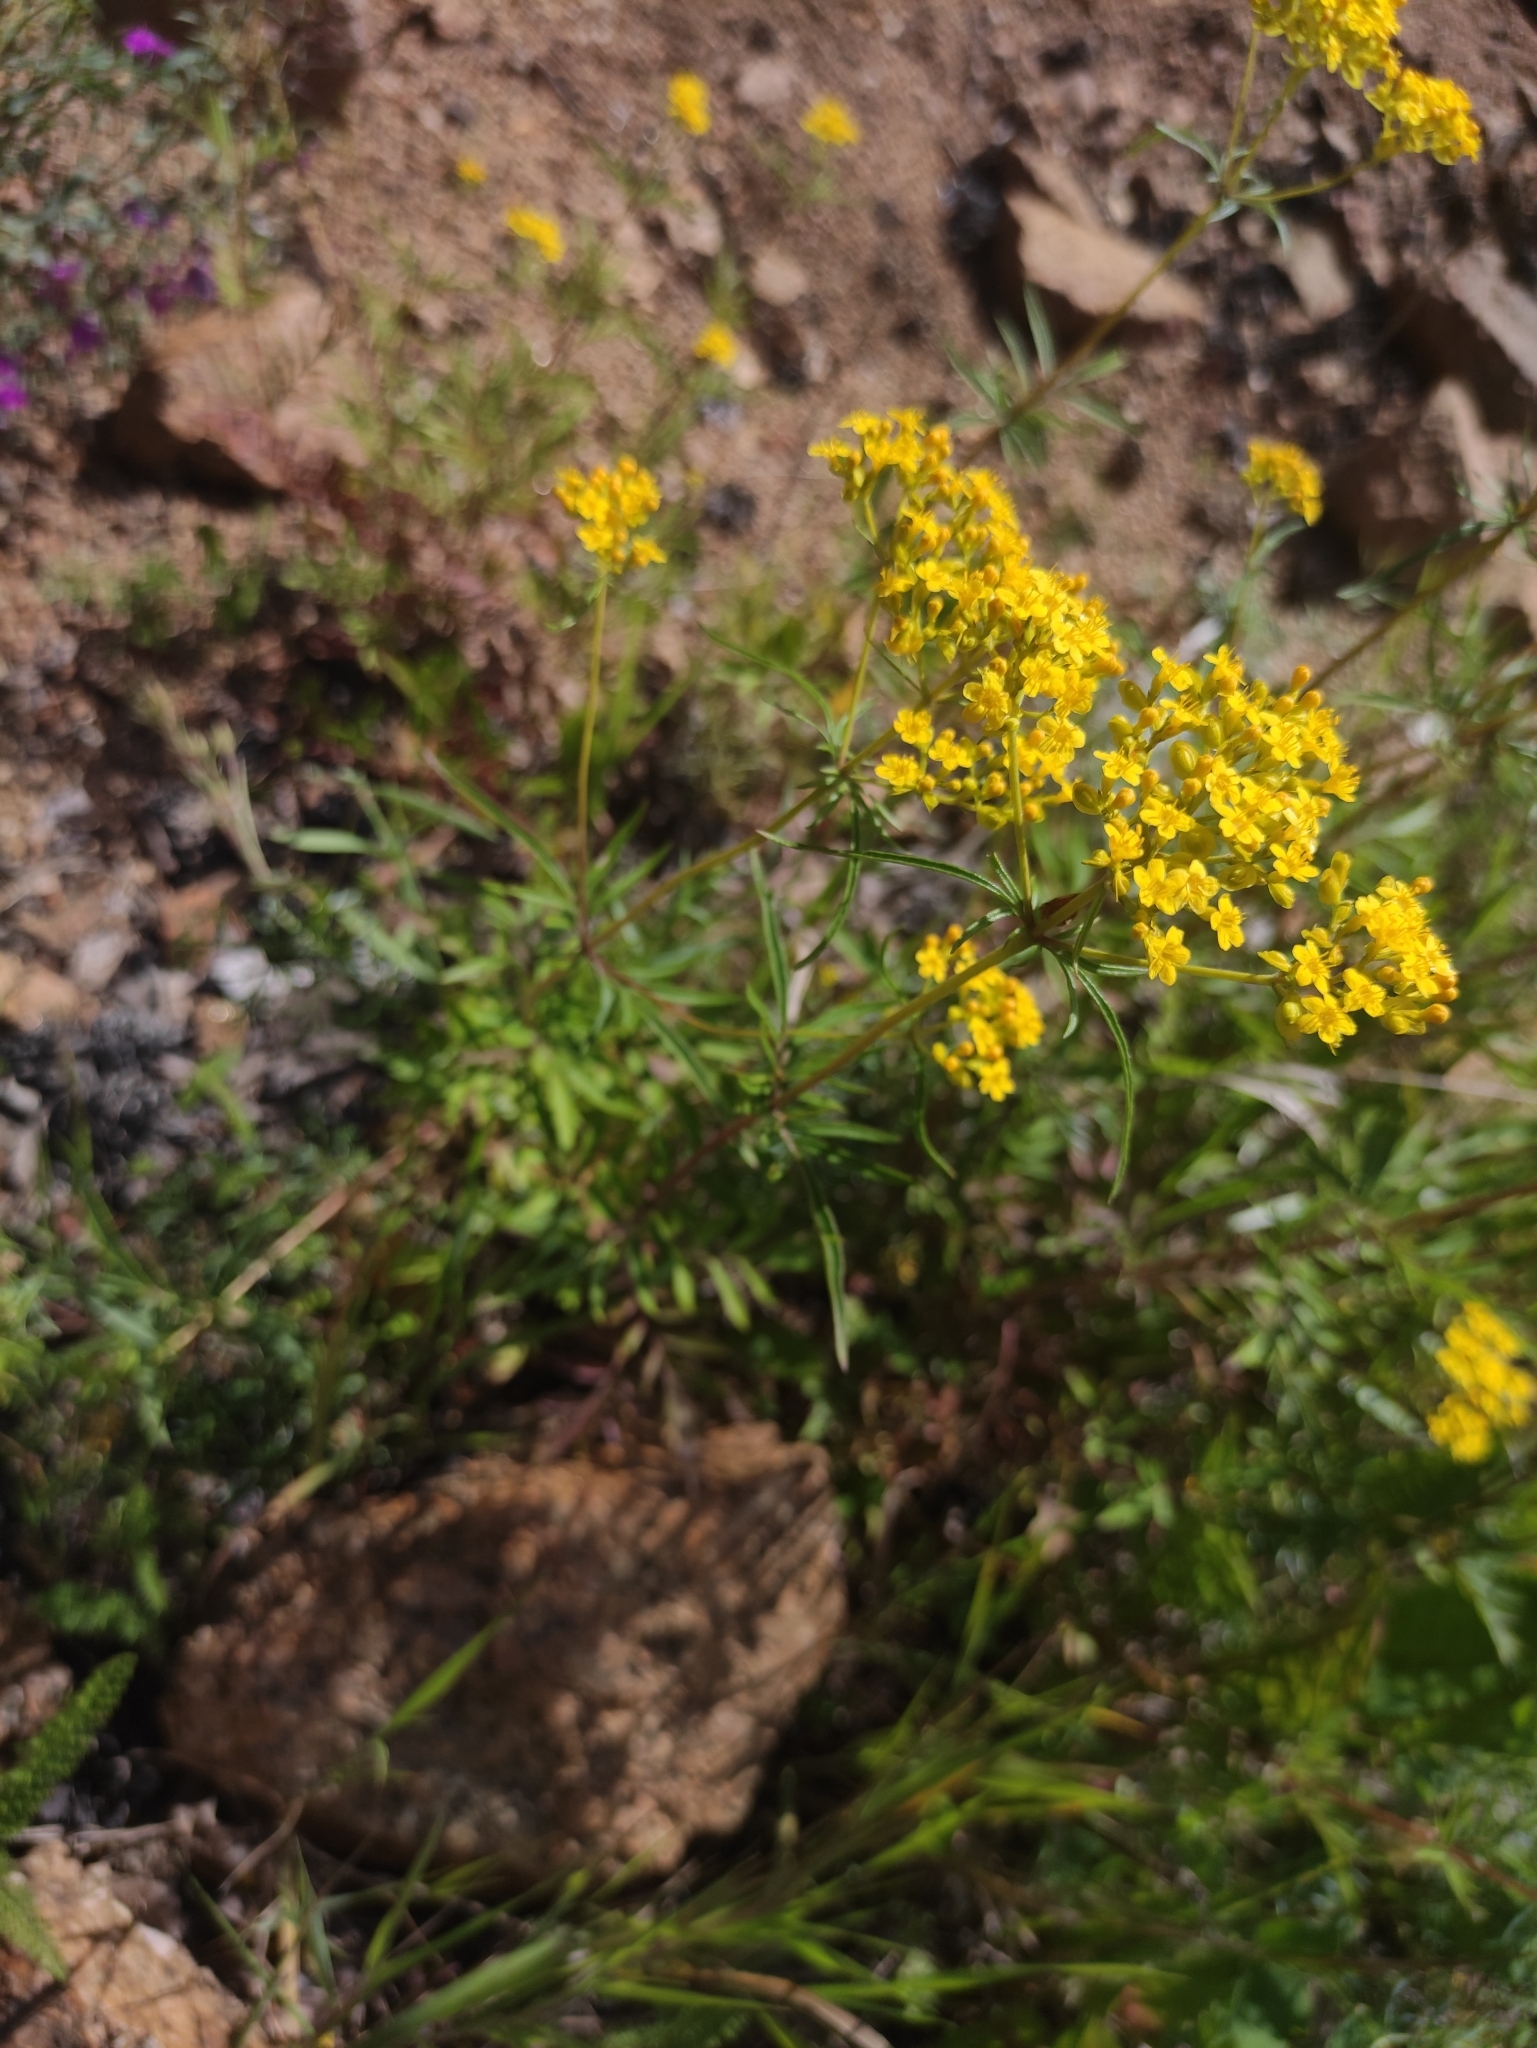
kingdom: Plantae
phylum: Tracheophyta
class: Magnoliopsida
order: Dipsacales
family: Caprifoliaceae
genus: Patrinia
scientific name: Patrinia rupestris
